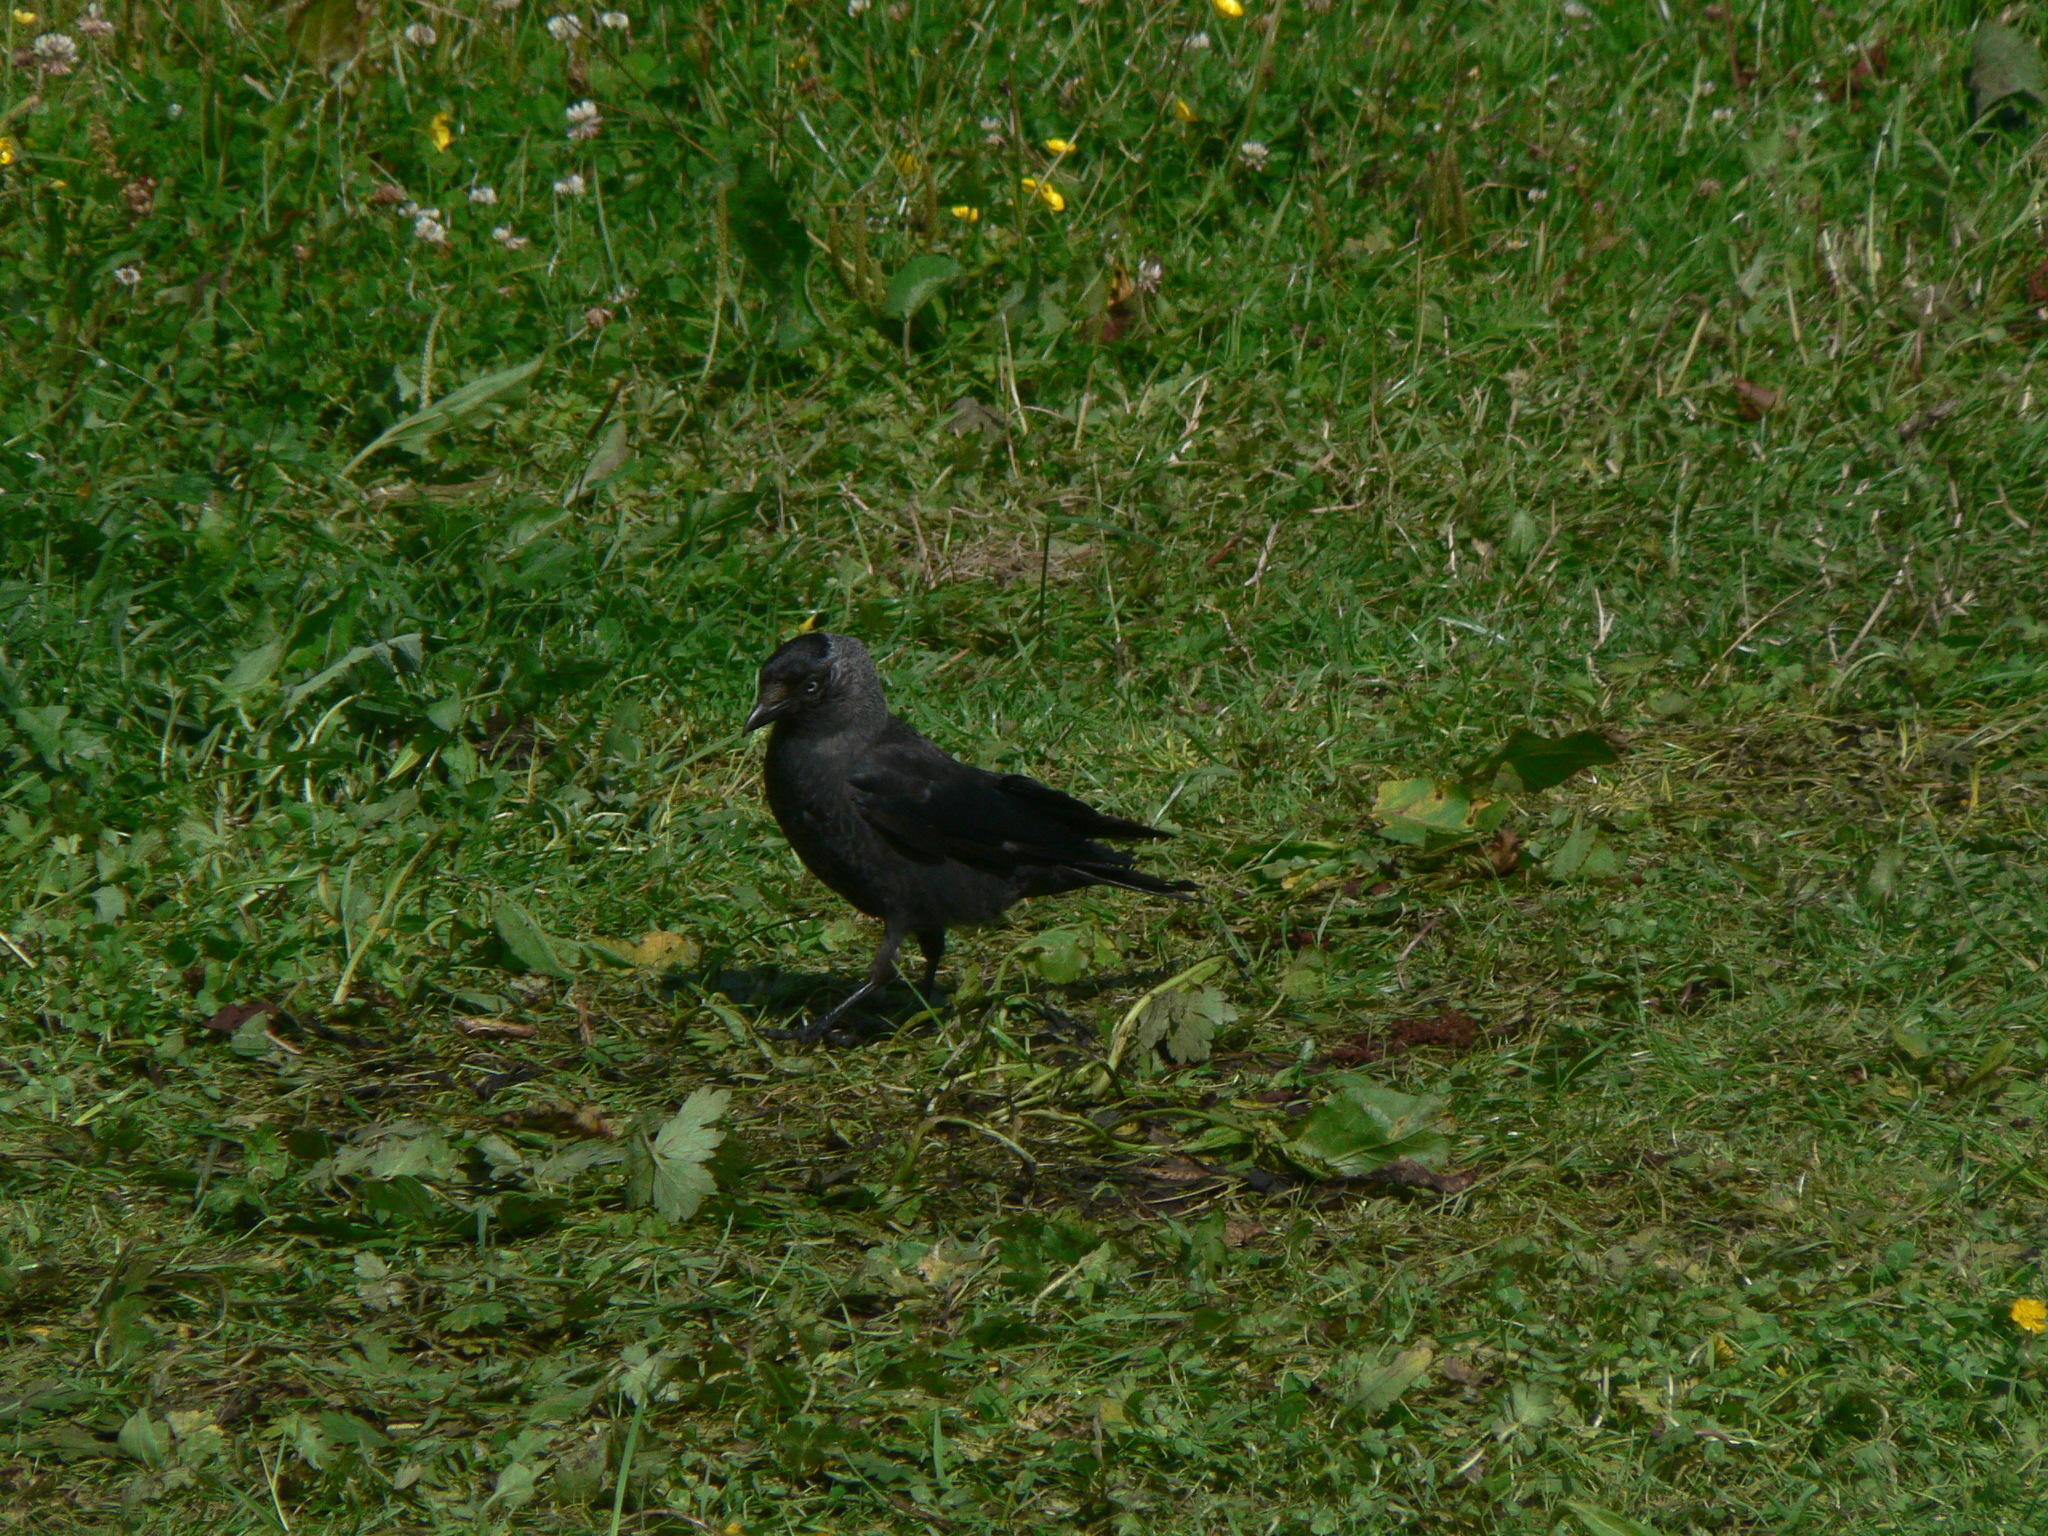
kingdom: Animalia
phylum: Chordata
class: Aves
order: Passeriformes
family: Corvidae
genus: Coloeus
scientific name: Coloeus monedula
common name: Western jackdaw
